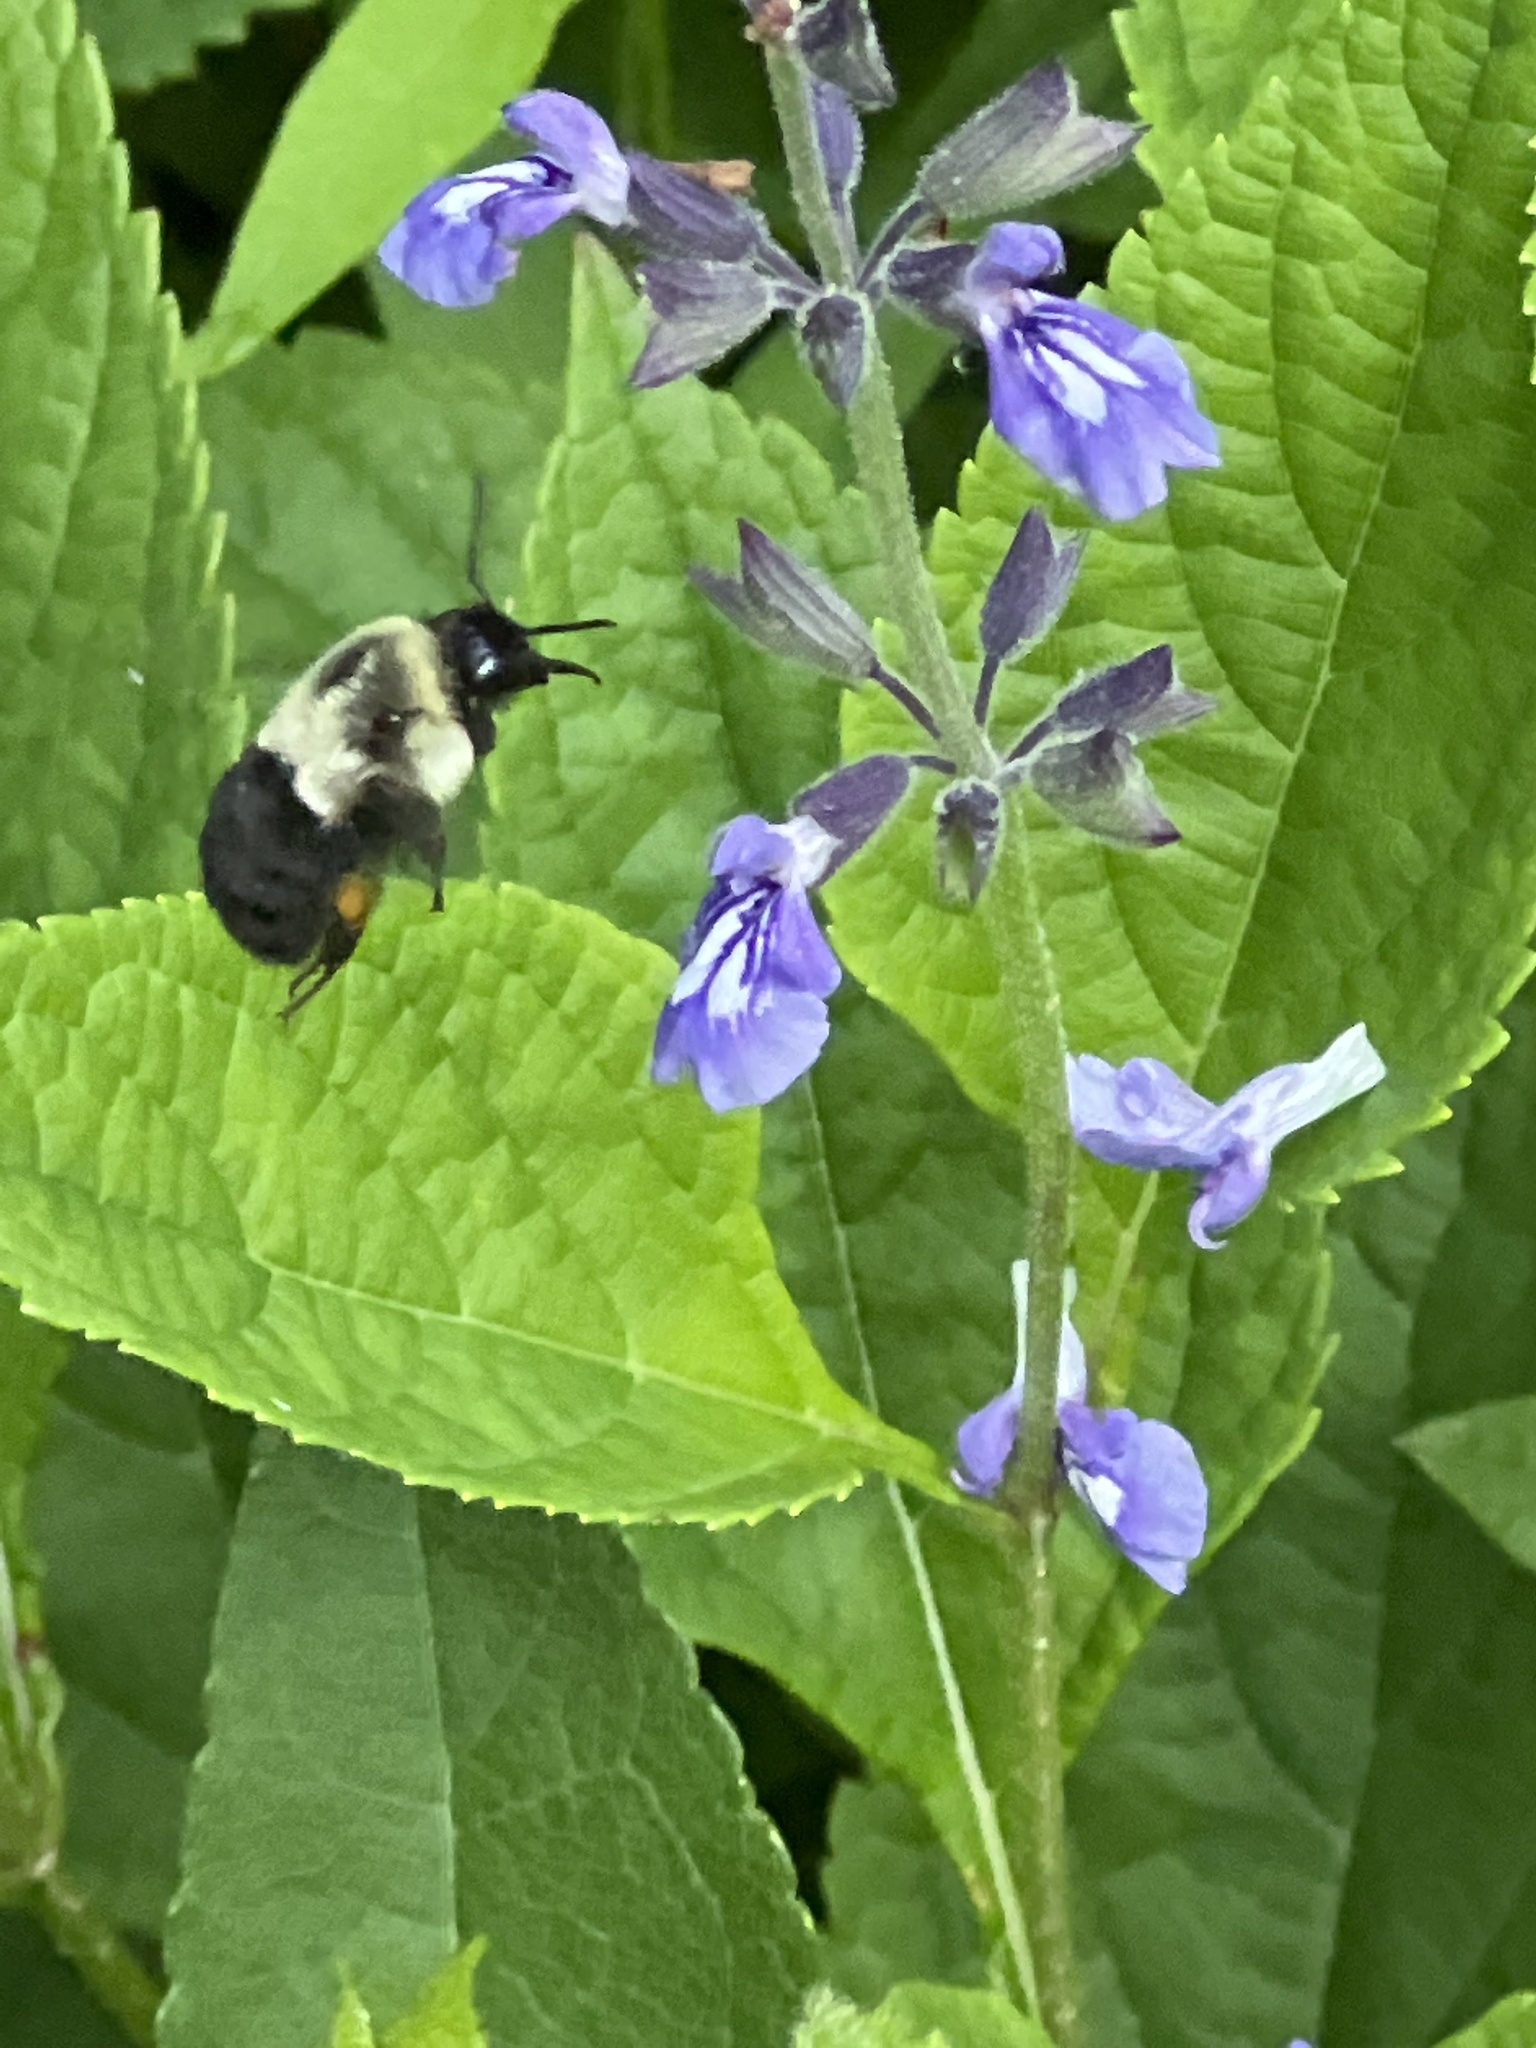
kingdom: Animalia
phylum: Arthropoda
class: Insecta
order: Hymenoptera
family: Apidae
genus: Bombus
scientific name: Bombus impatiens
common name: Common eastern bumble bee
